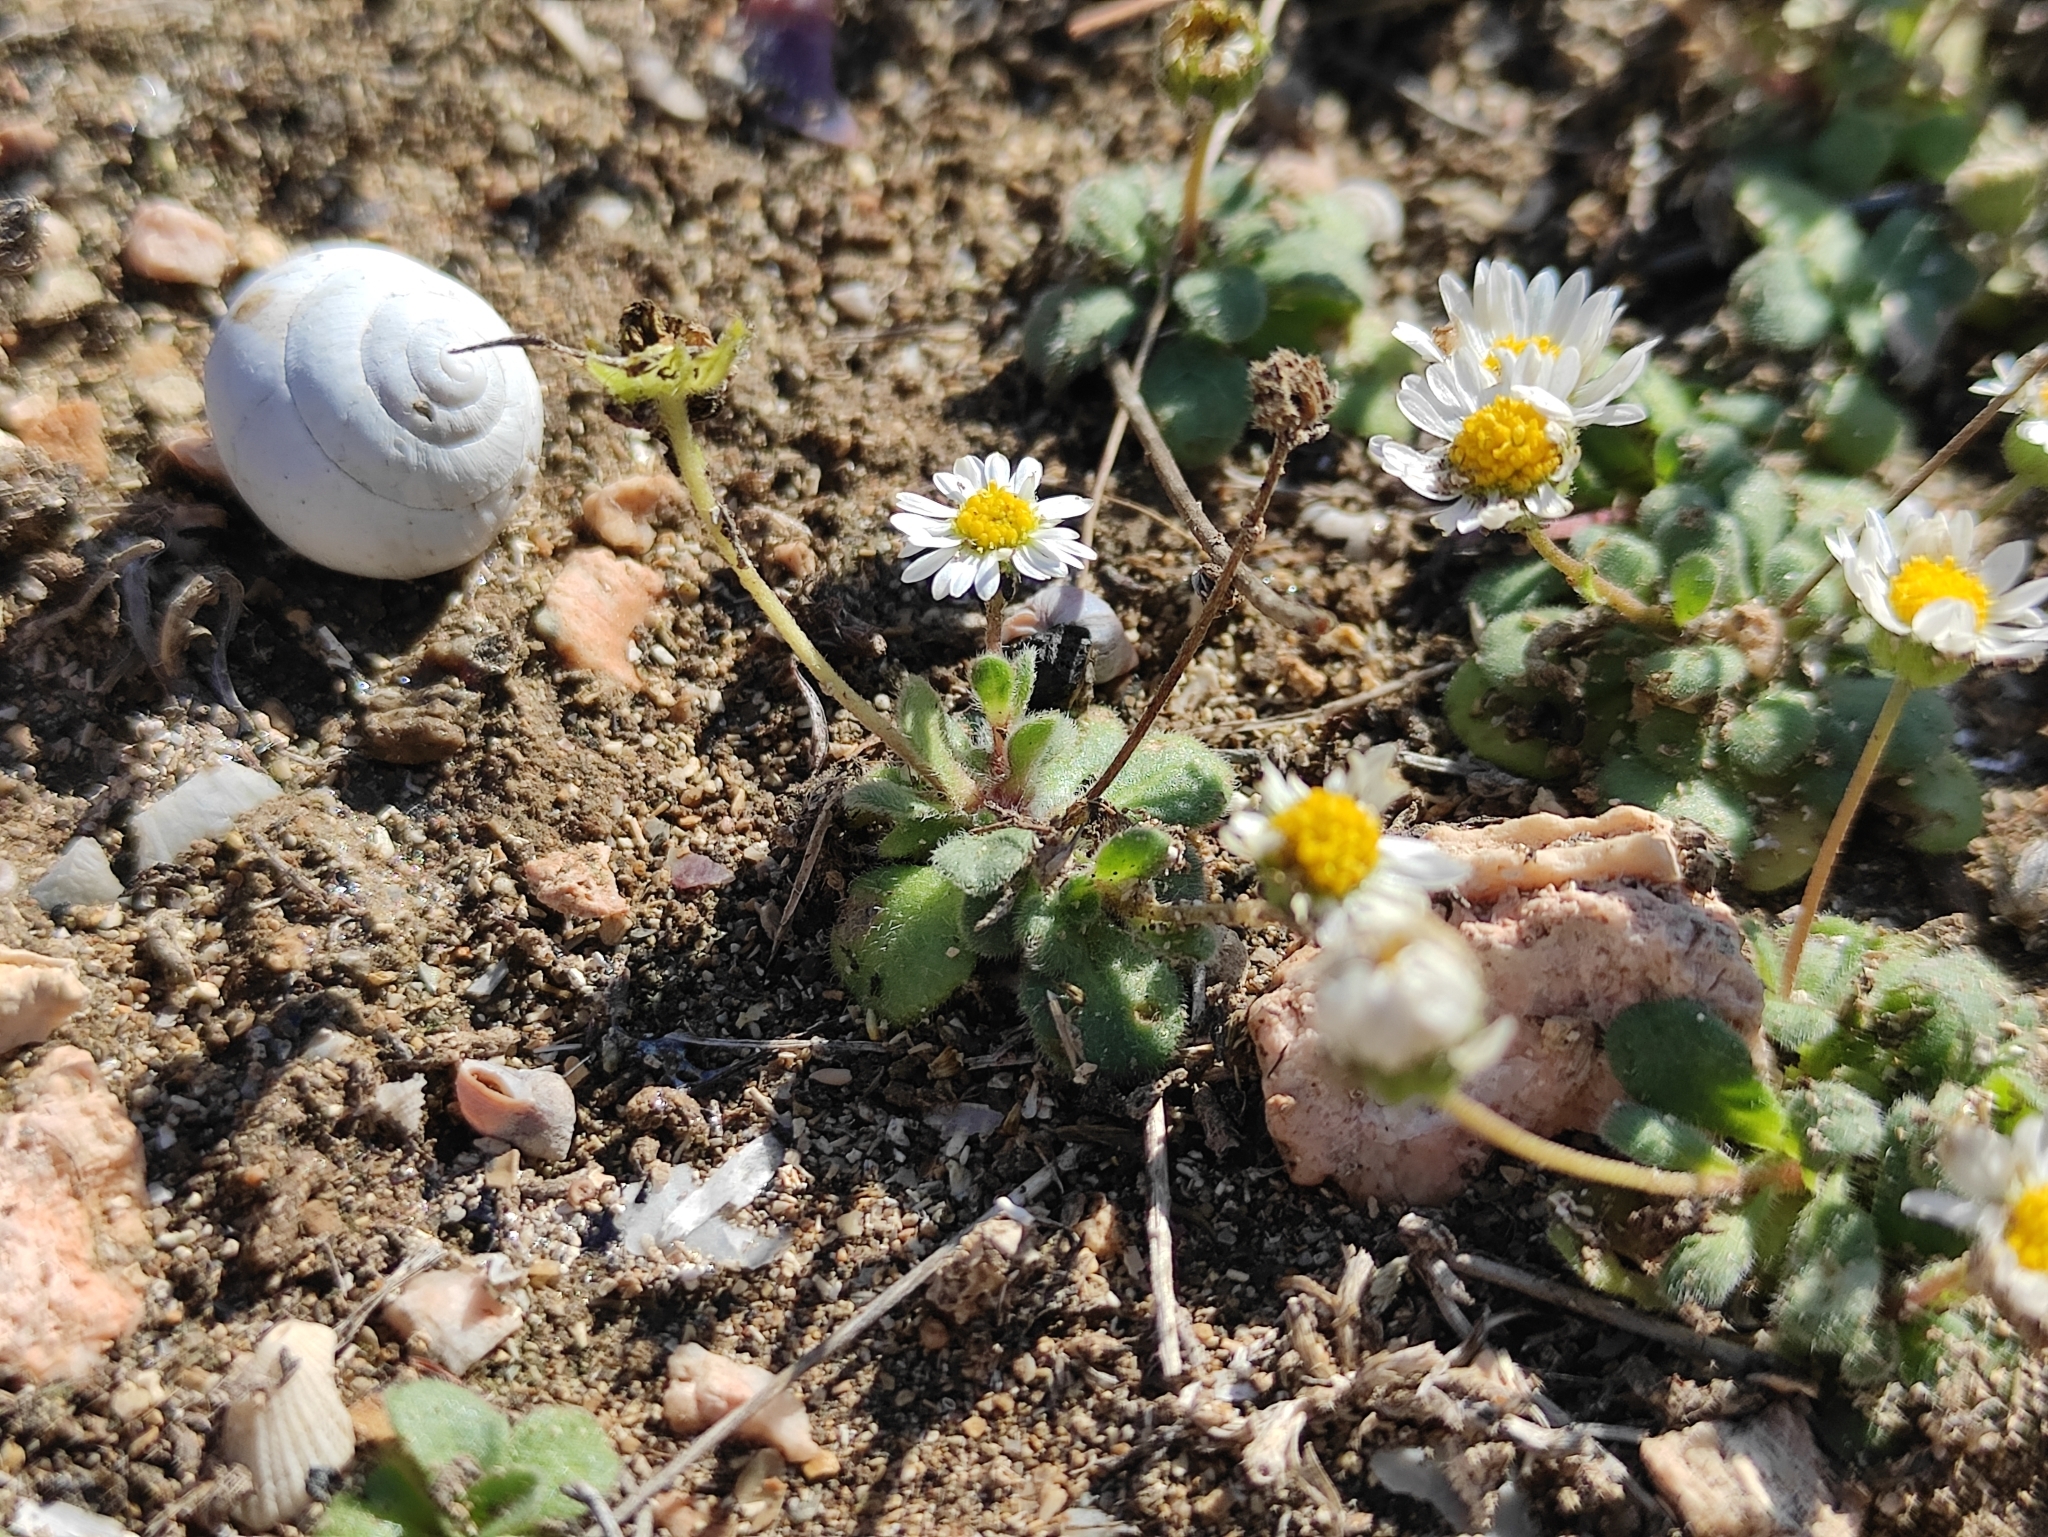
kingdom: Plantae
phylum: Tracheophyta
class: Magnoliopsida
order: Asterales
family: Asteraceae
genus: Bellis
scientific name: Bellis annua
